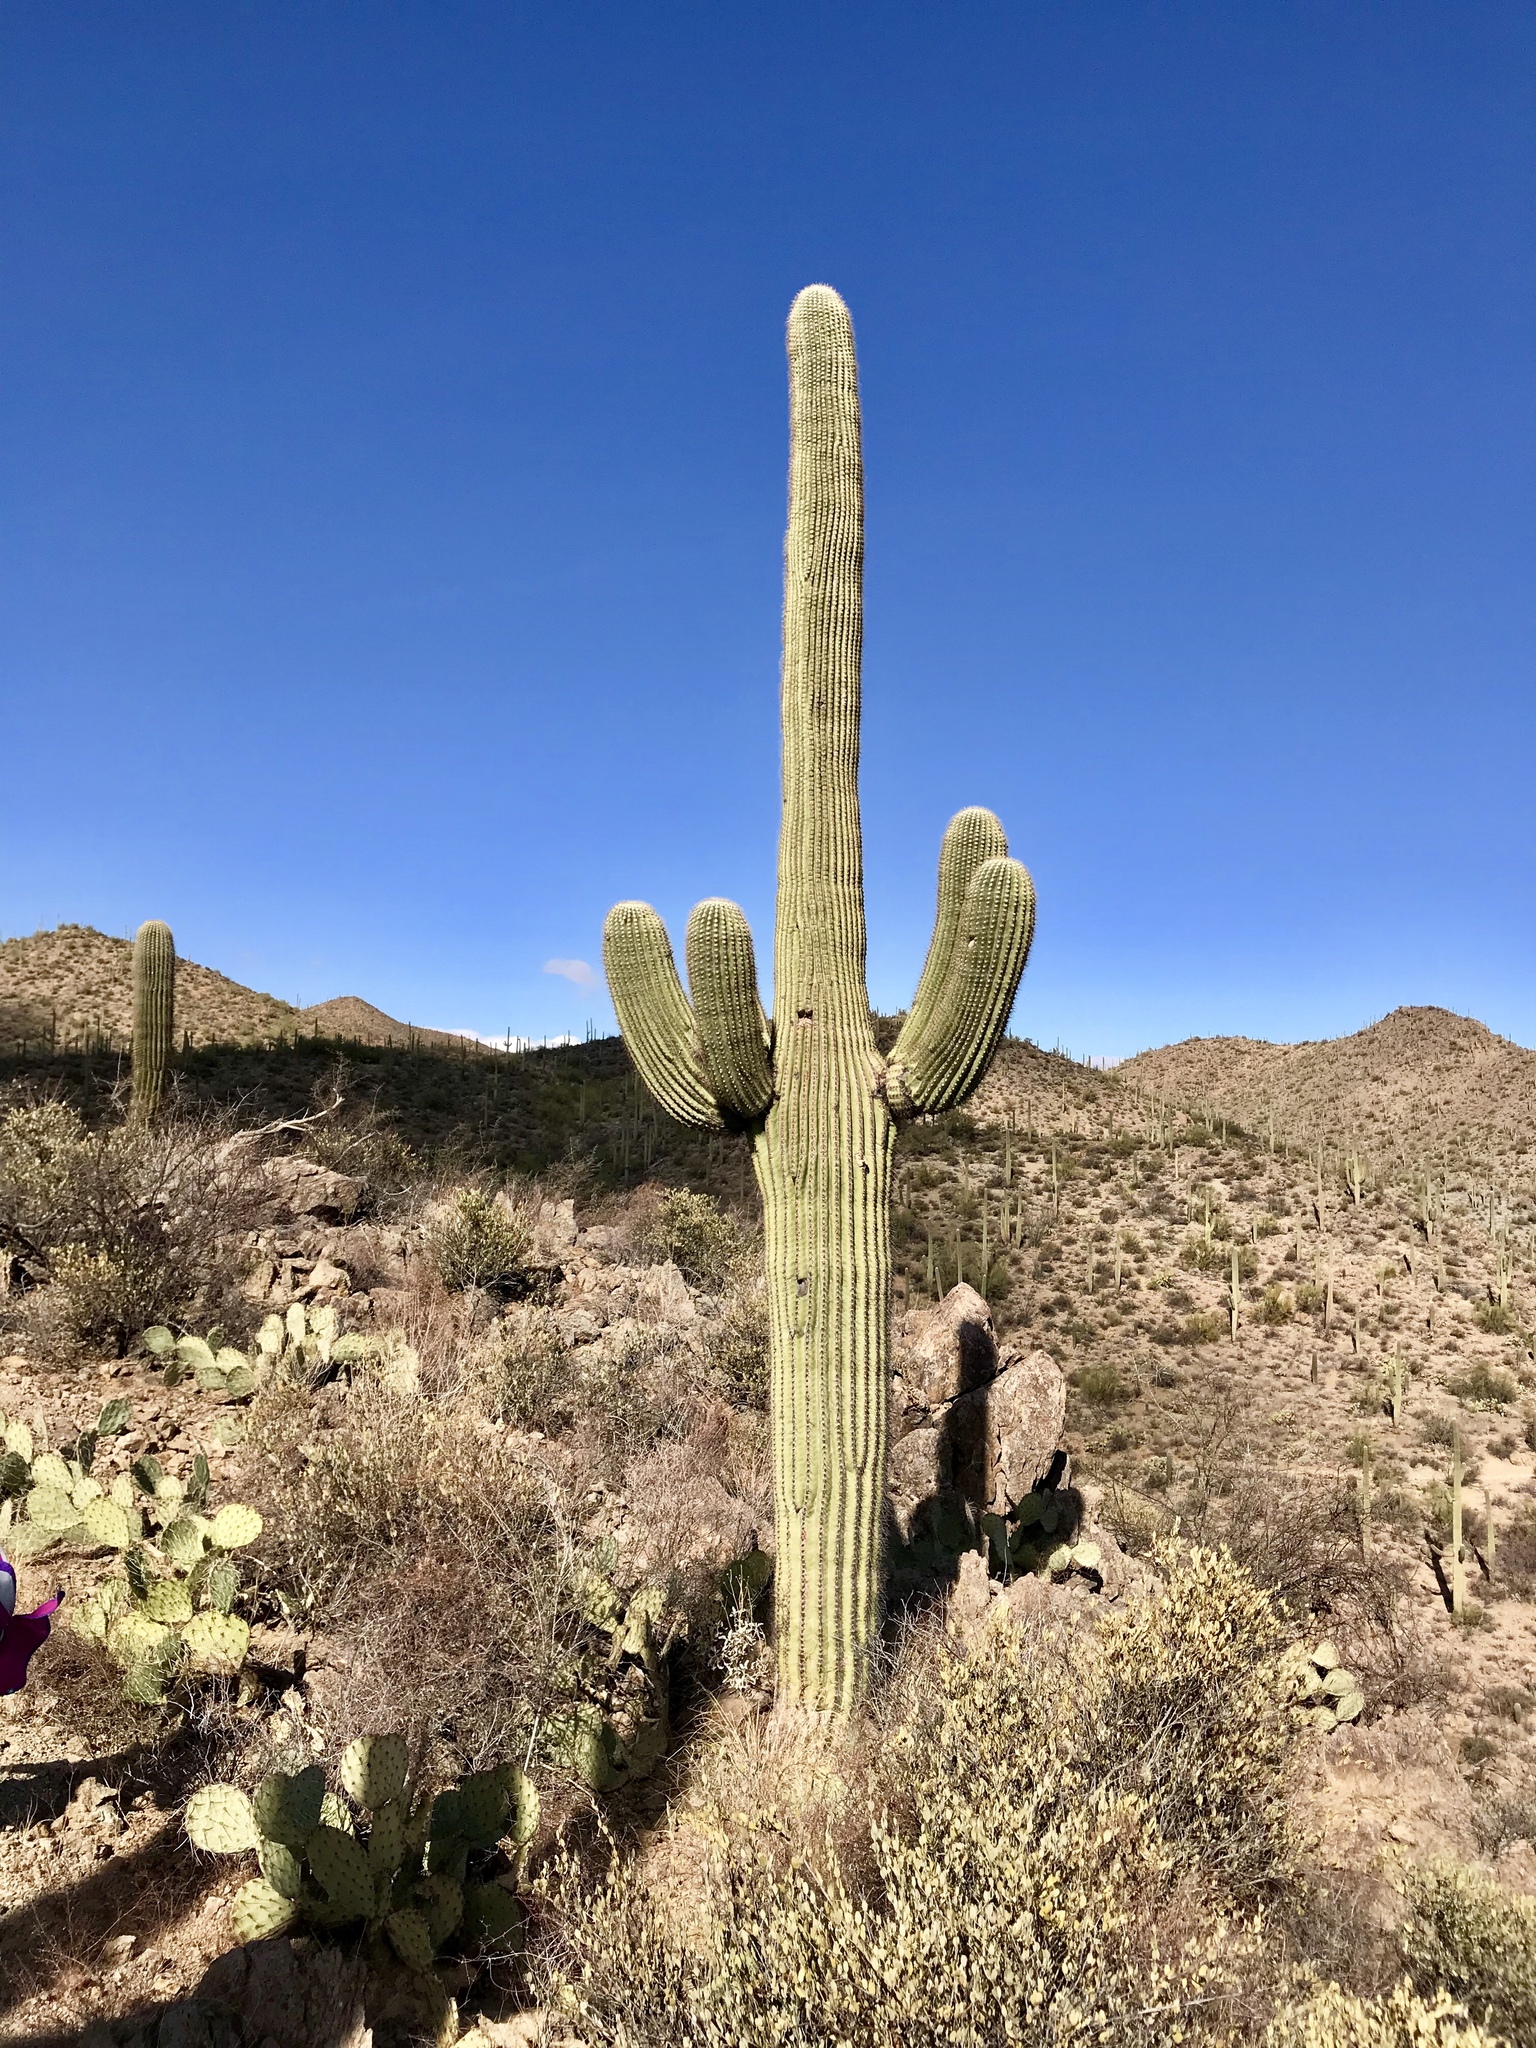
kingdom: Plantae
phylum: Tracheophyta
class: Magnoliopsida
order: Caryophyllales
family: Cactaceae
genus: Carnegiea
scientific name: Carnegiea gigantea
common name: Saguaro
